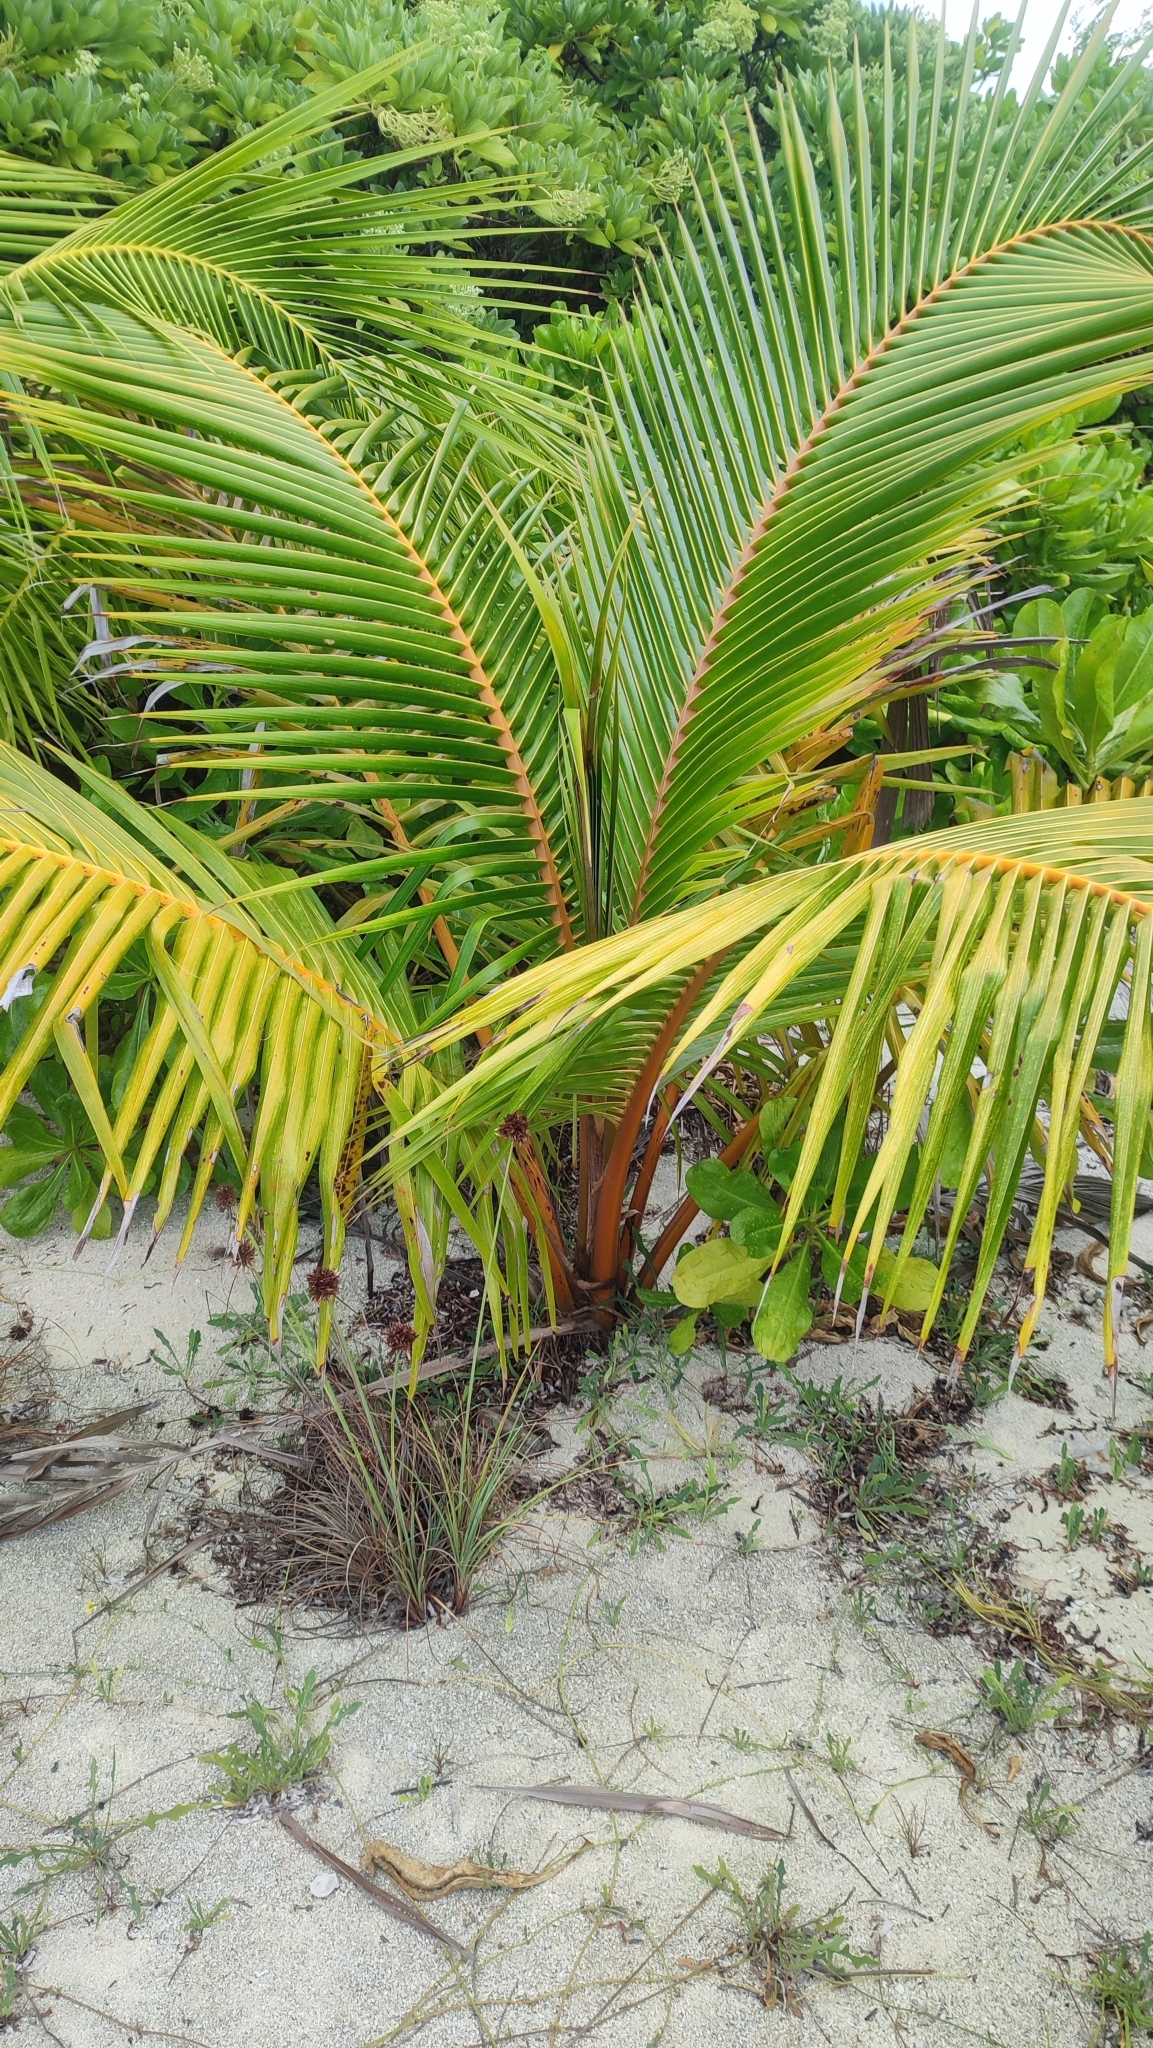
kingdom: Plantae
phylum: Tracheophyta
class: Liliopsida
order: Arecales
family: Arecaceae
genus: Cocos
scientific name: Cocos nucifera
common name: Coconut palm
